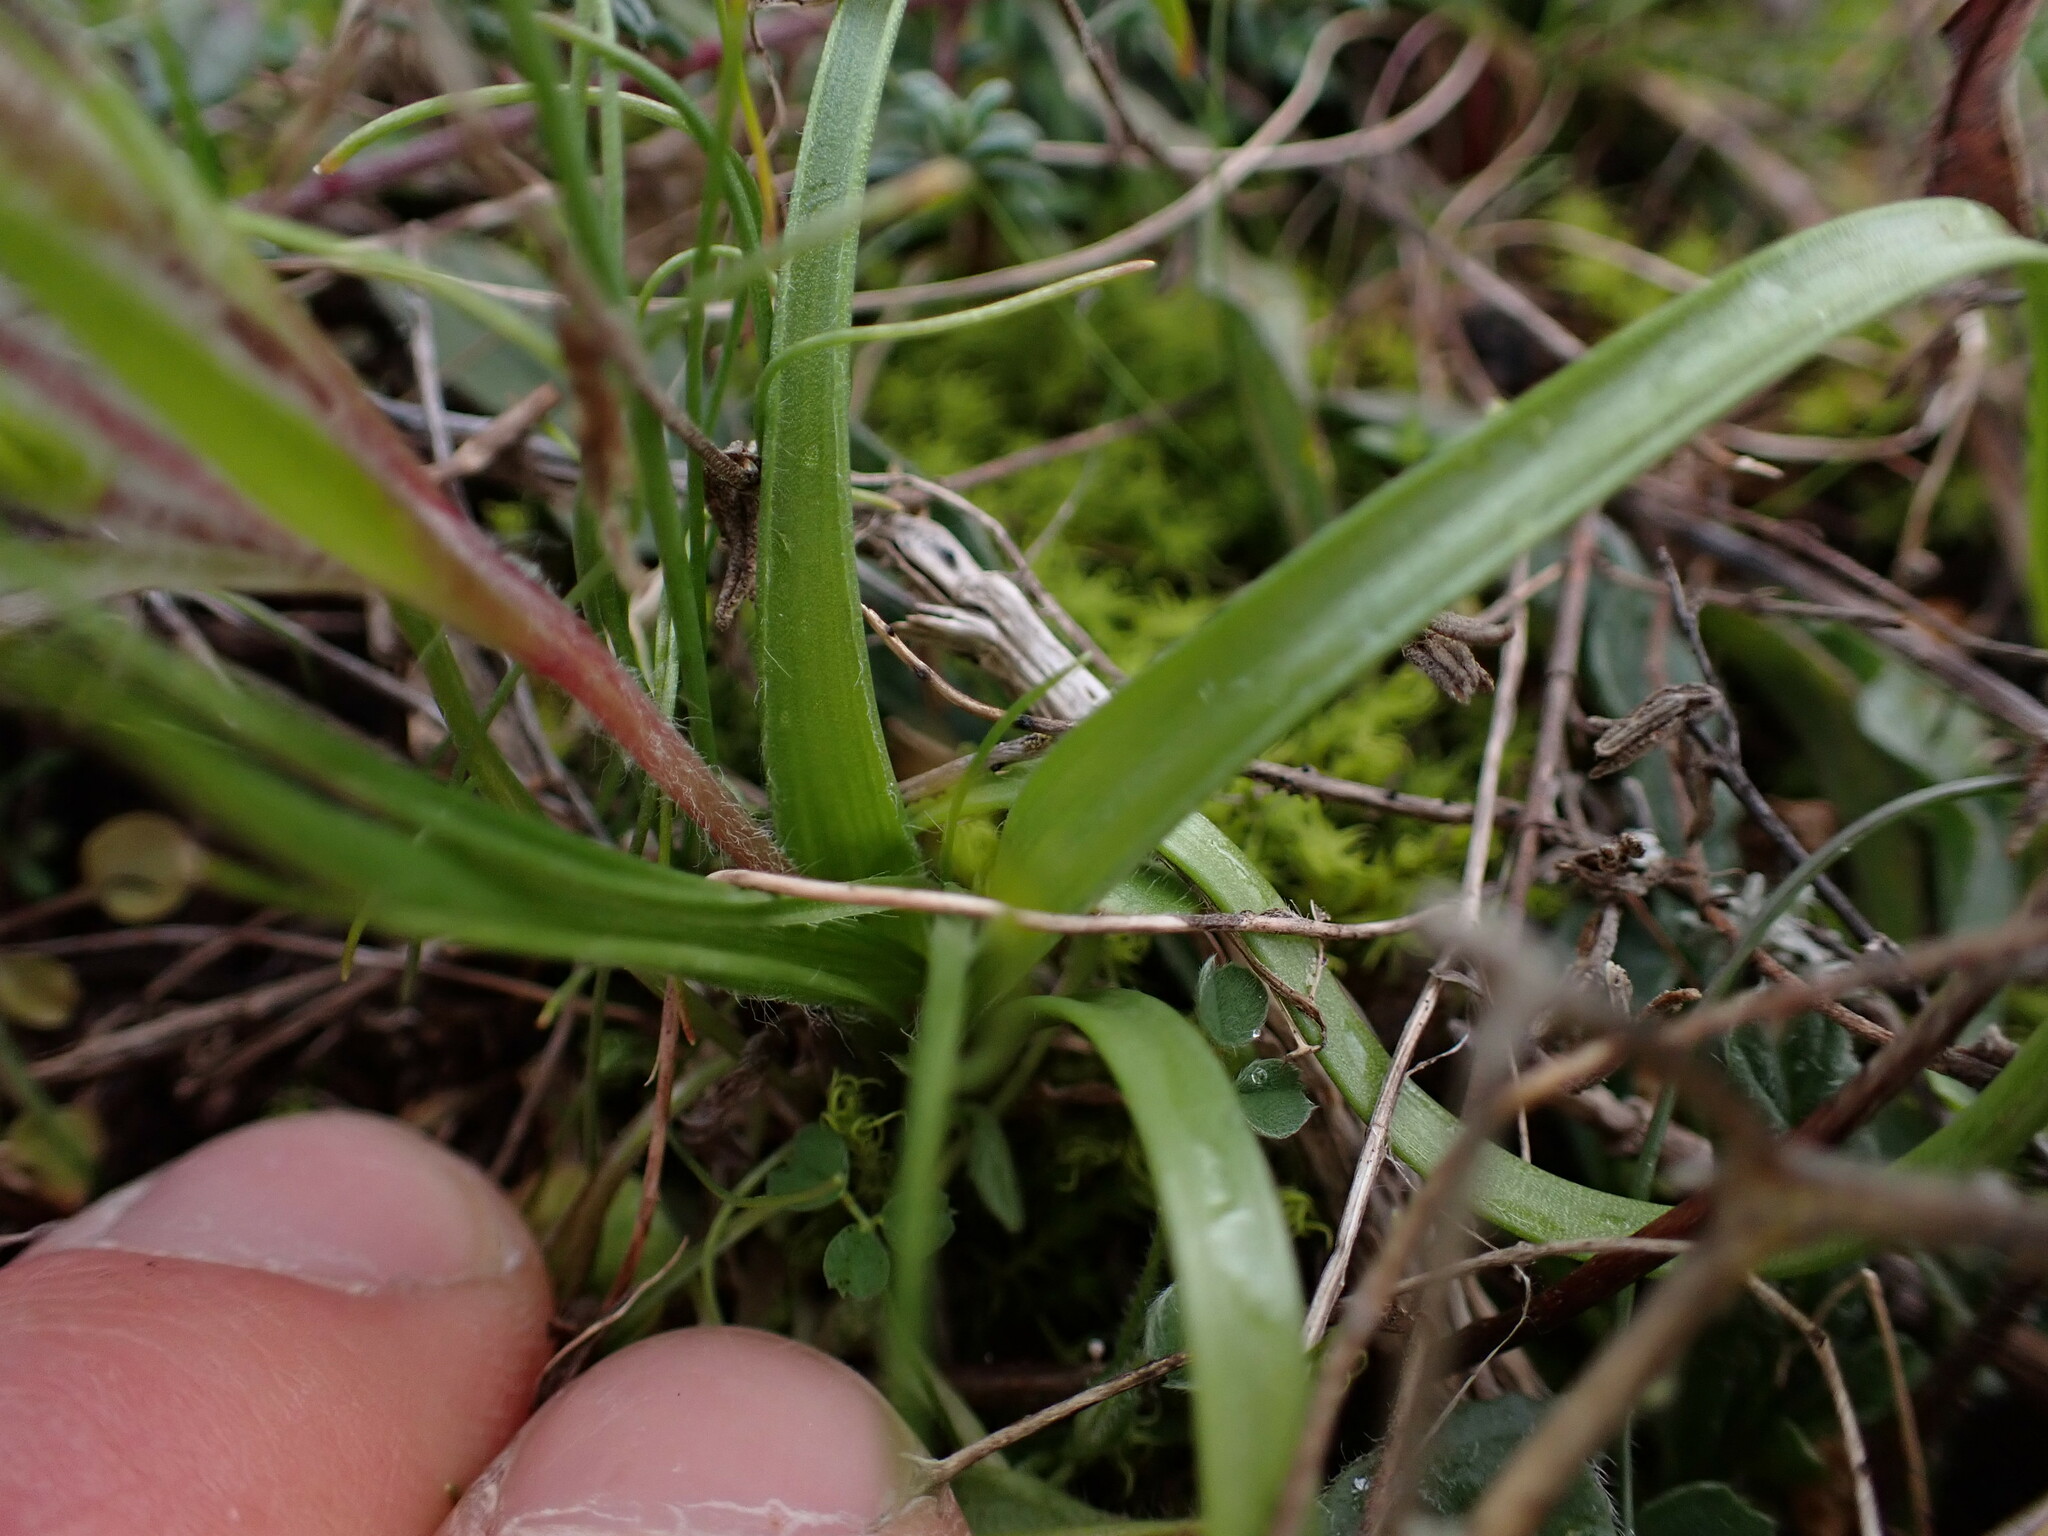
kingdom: Plantae
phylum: Tracheophyta
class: Liliopsida
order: Liliales
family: Liliaceae
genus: Gagea
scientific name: Gagea lacaitae
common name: Gagée de lacaita
